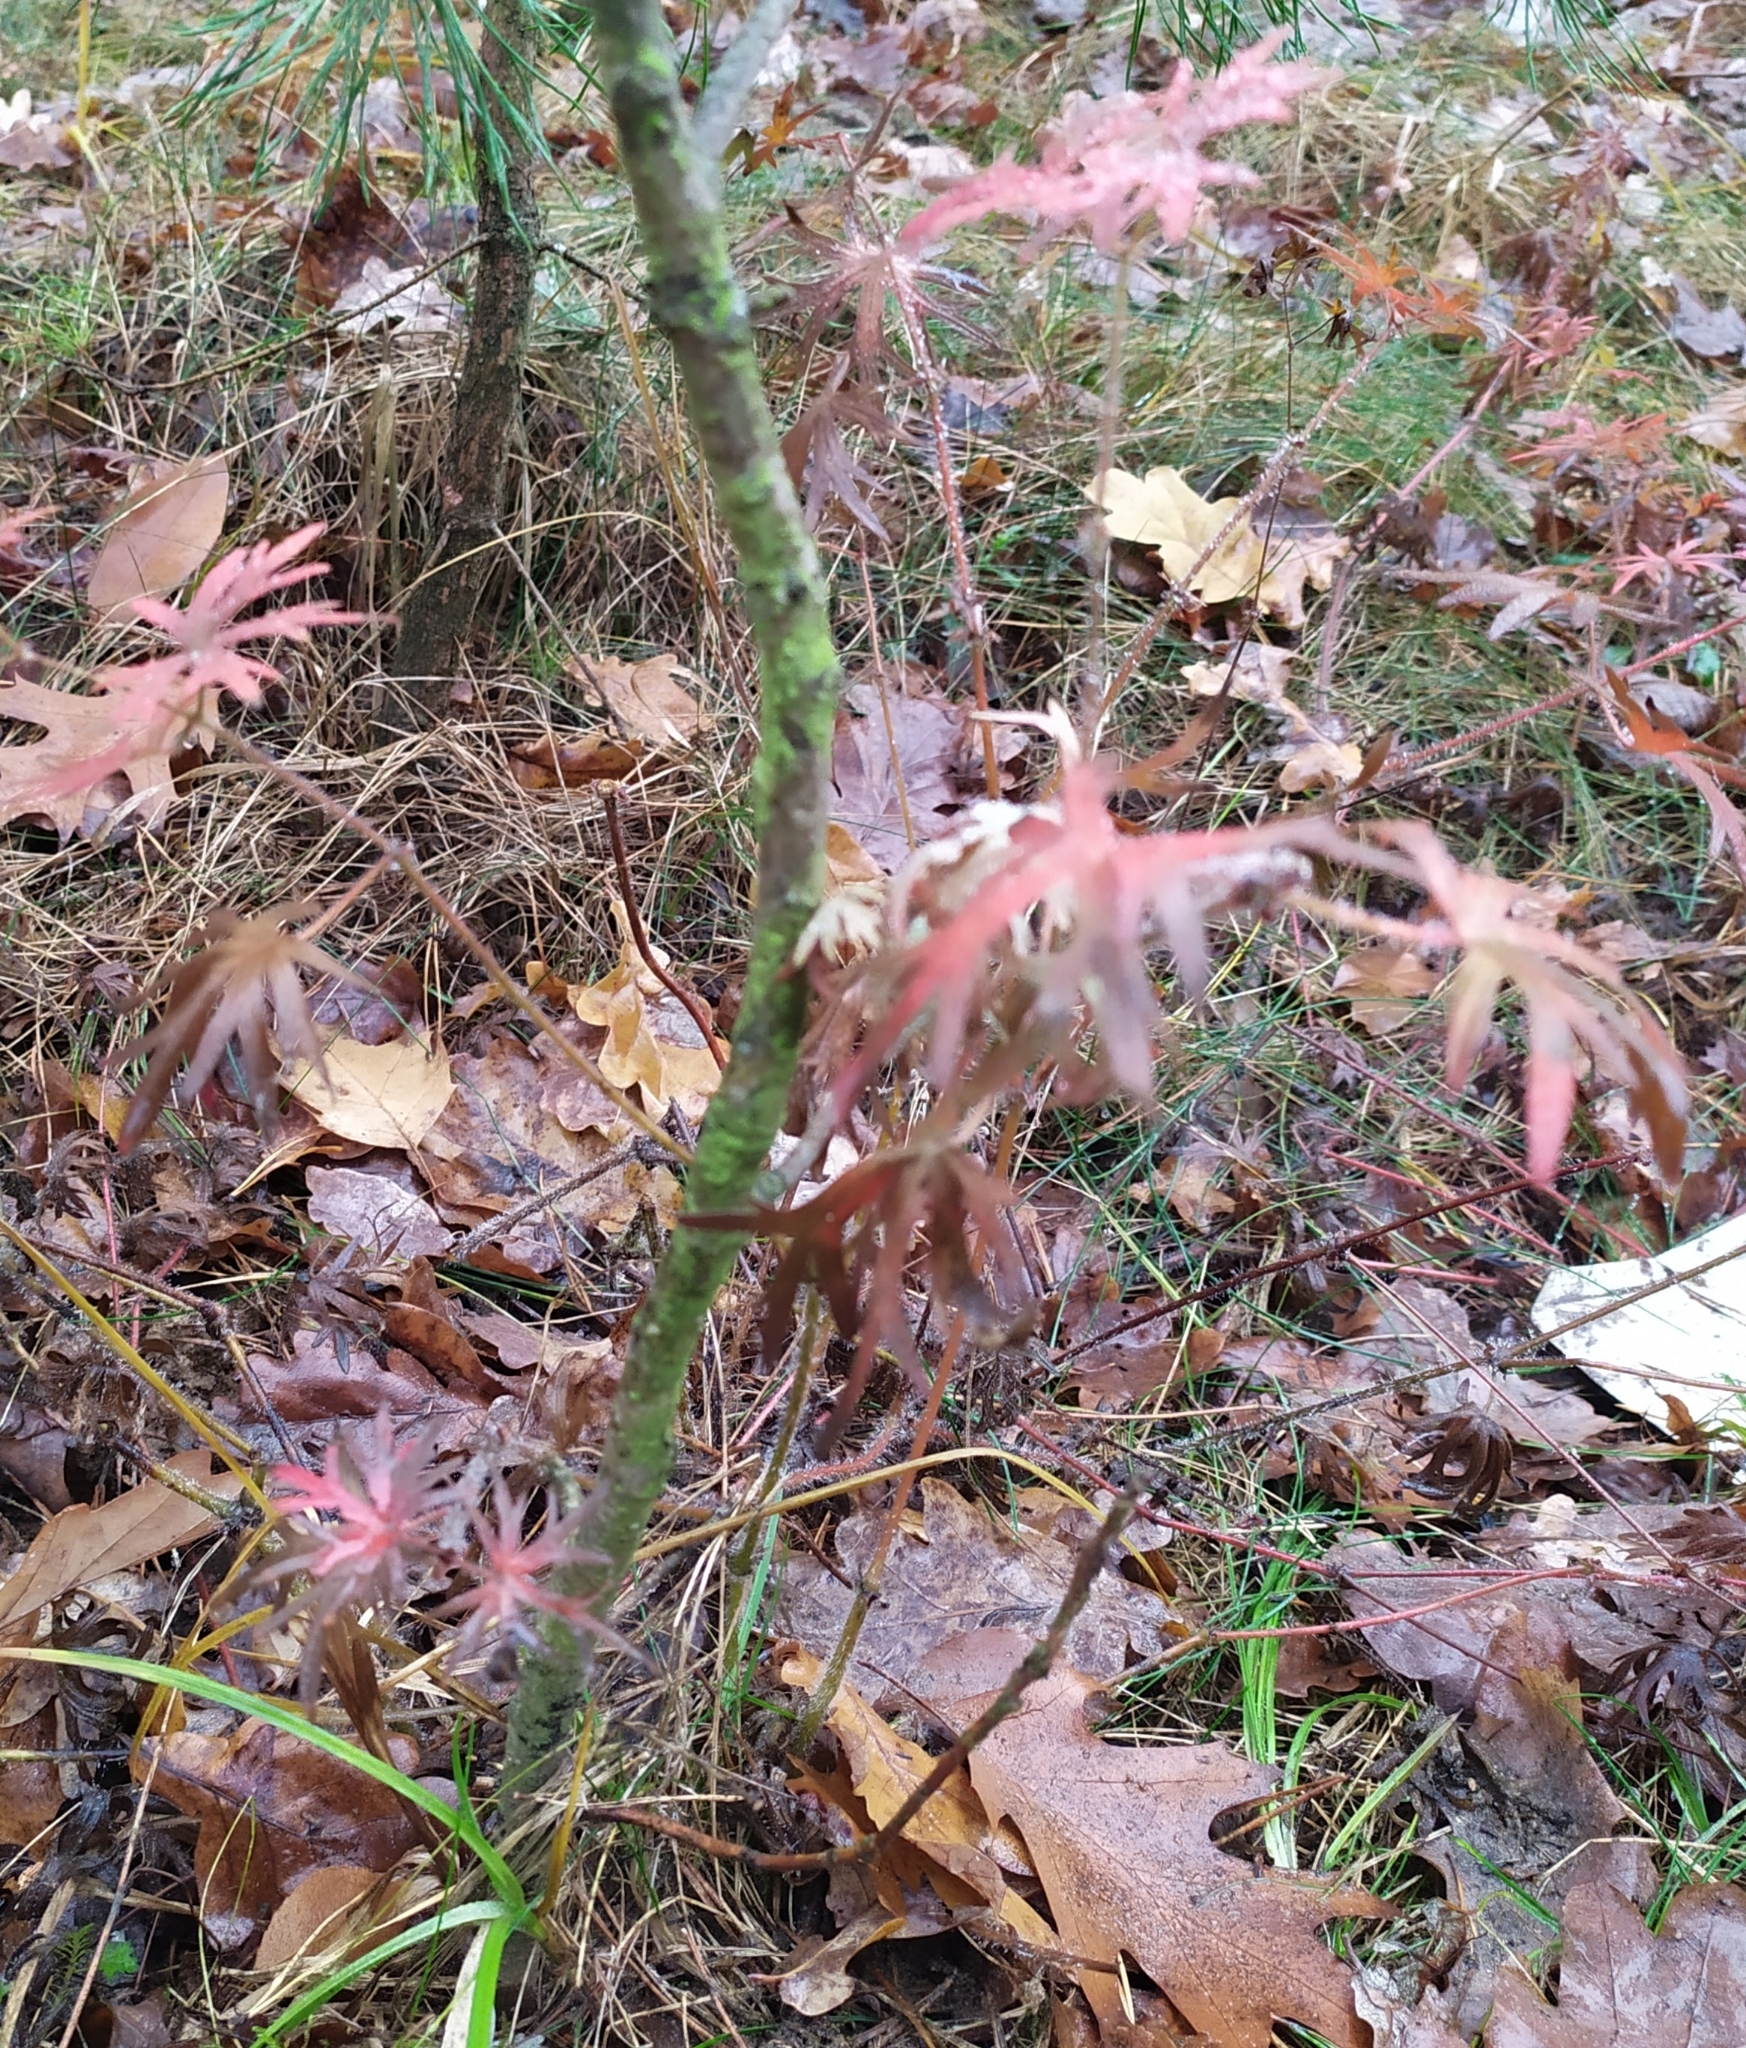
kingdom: Plantae
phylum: Tracheophyta
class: Magnoliopsida
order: Geraniales
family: Geraniaceae
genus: Geranium
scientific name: Geranium sanguineum
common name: Bloody crane's-bill
